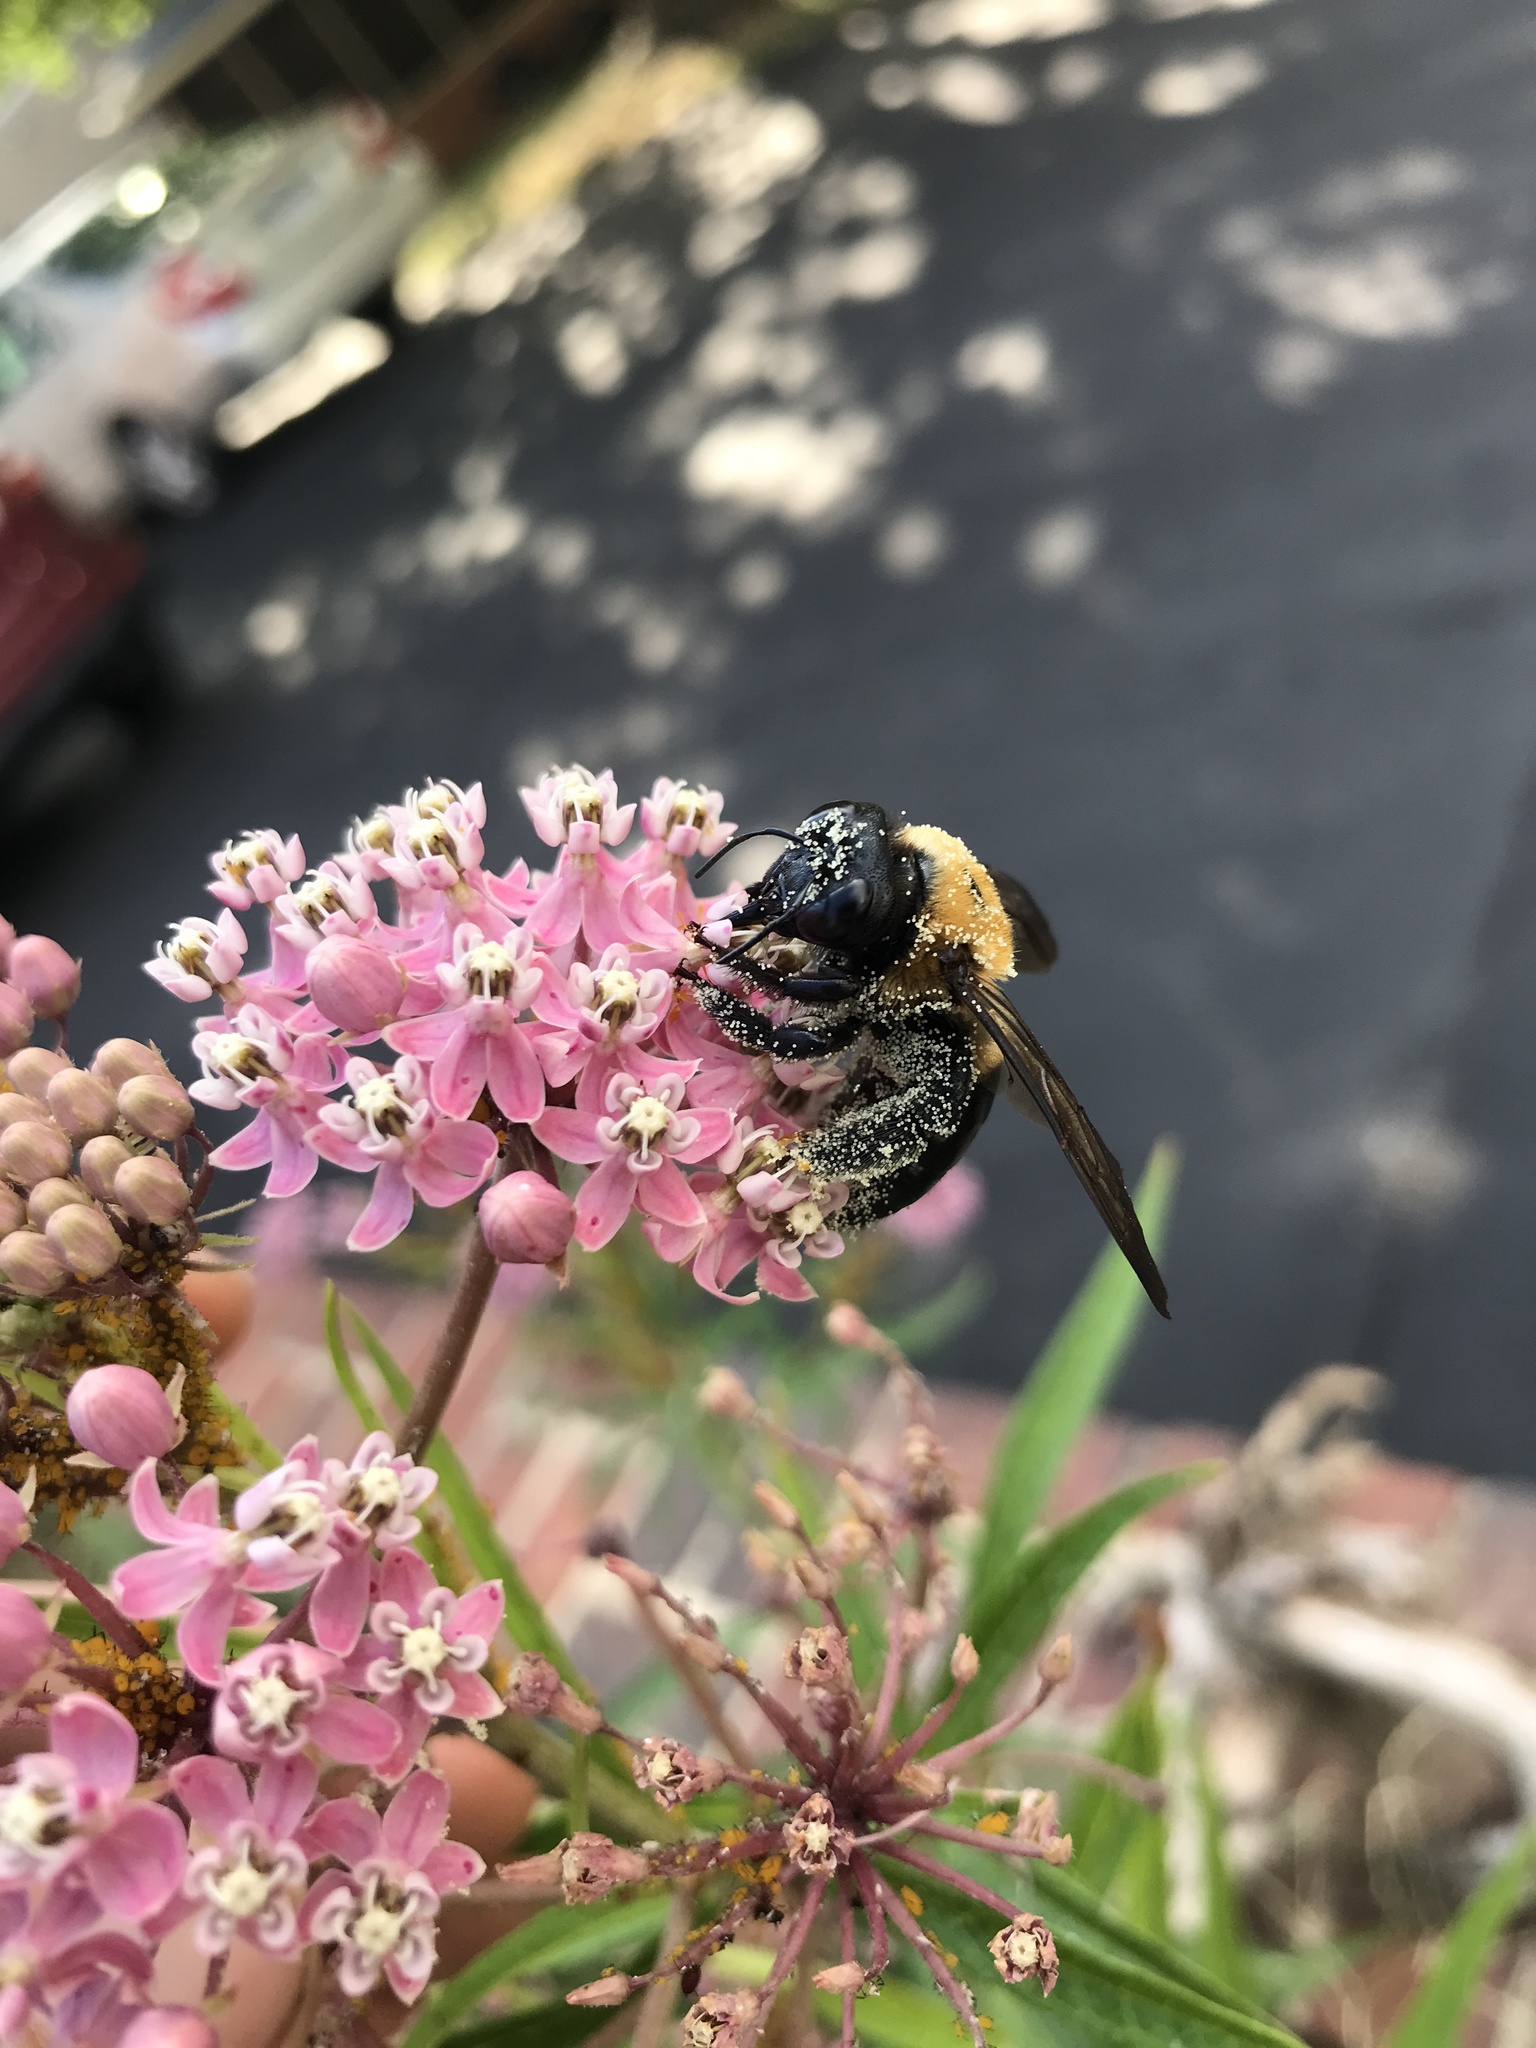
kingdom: Animalia
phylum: Arthropoda
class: Insecta
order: Hymenoptera
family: Apidae
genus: Xylocopa
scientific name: Xylocopa virginica
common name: Carpenter bee
